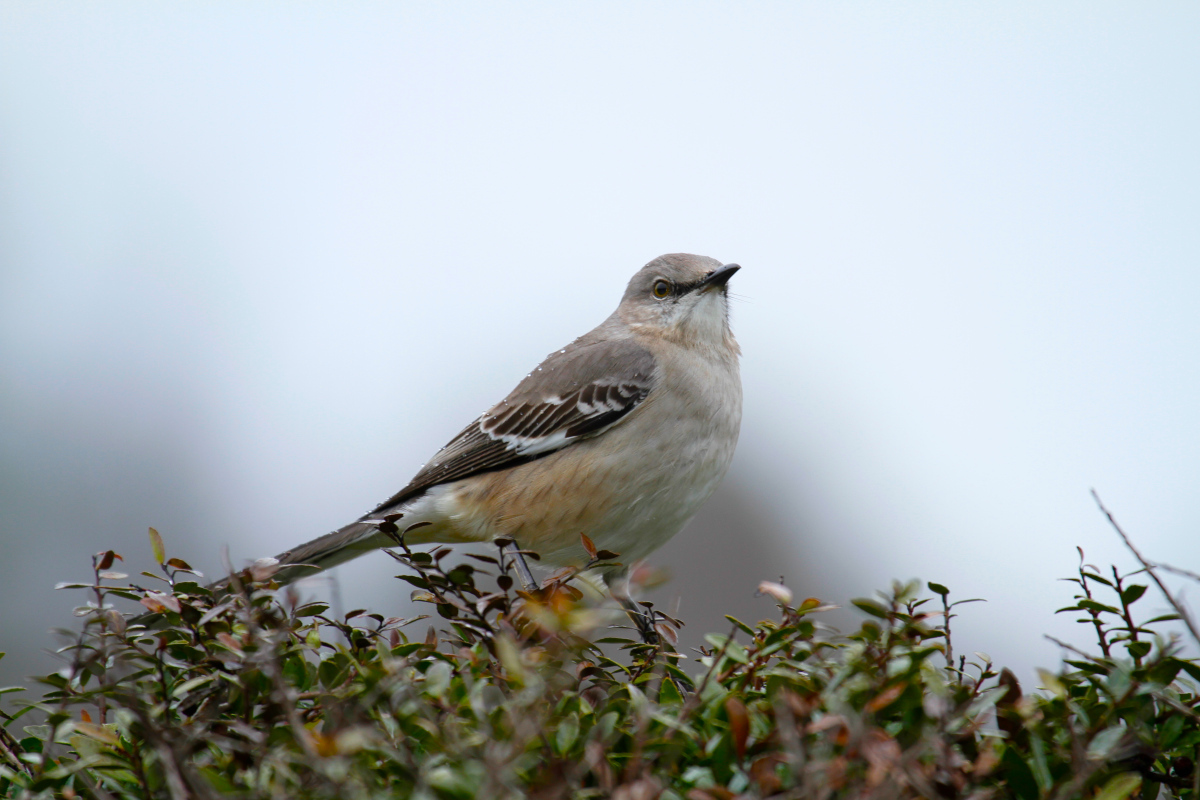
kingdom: Animalia
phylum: Chordata
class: Aves
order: Passeriformes
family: Mimidae
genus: Mimus
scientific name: Mimus polyglottos
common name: Northern mockingbird
